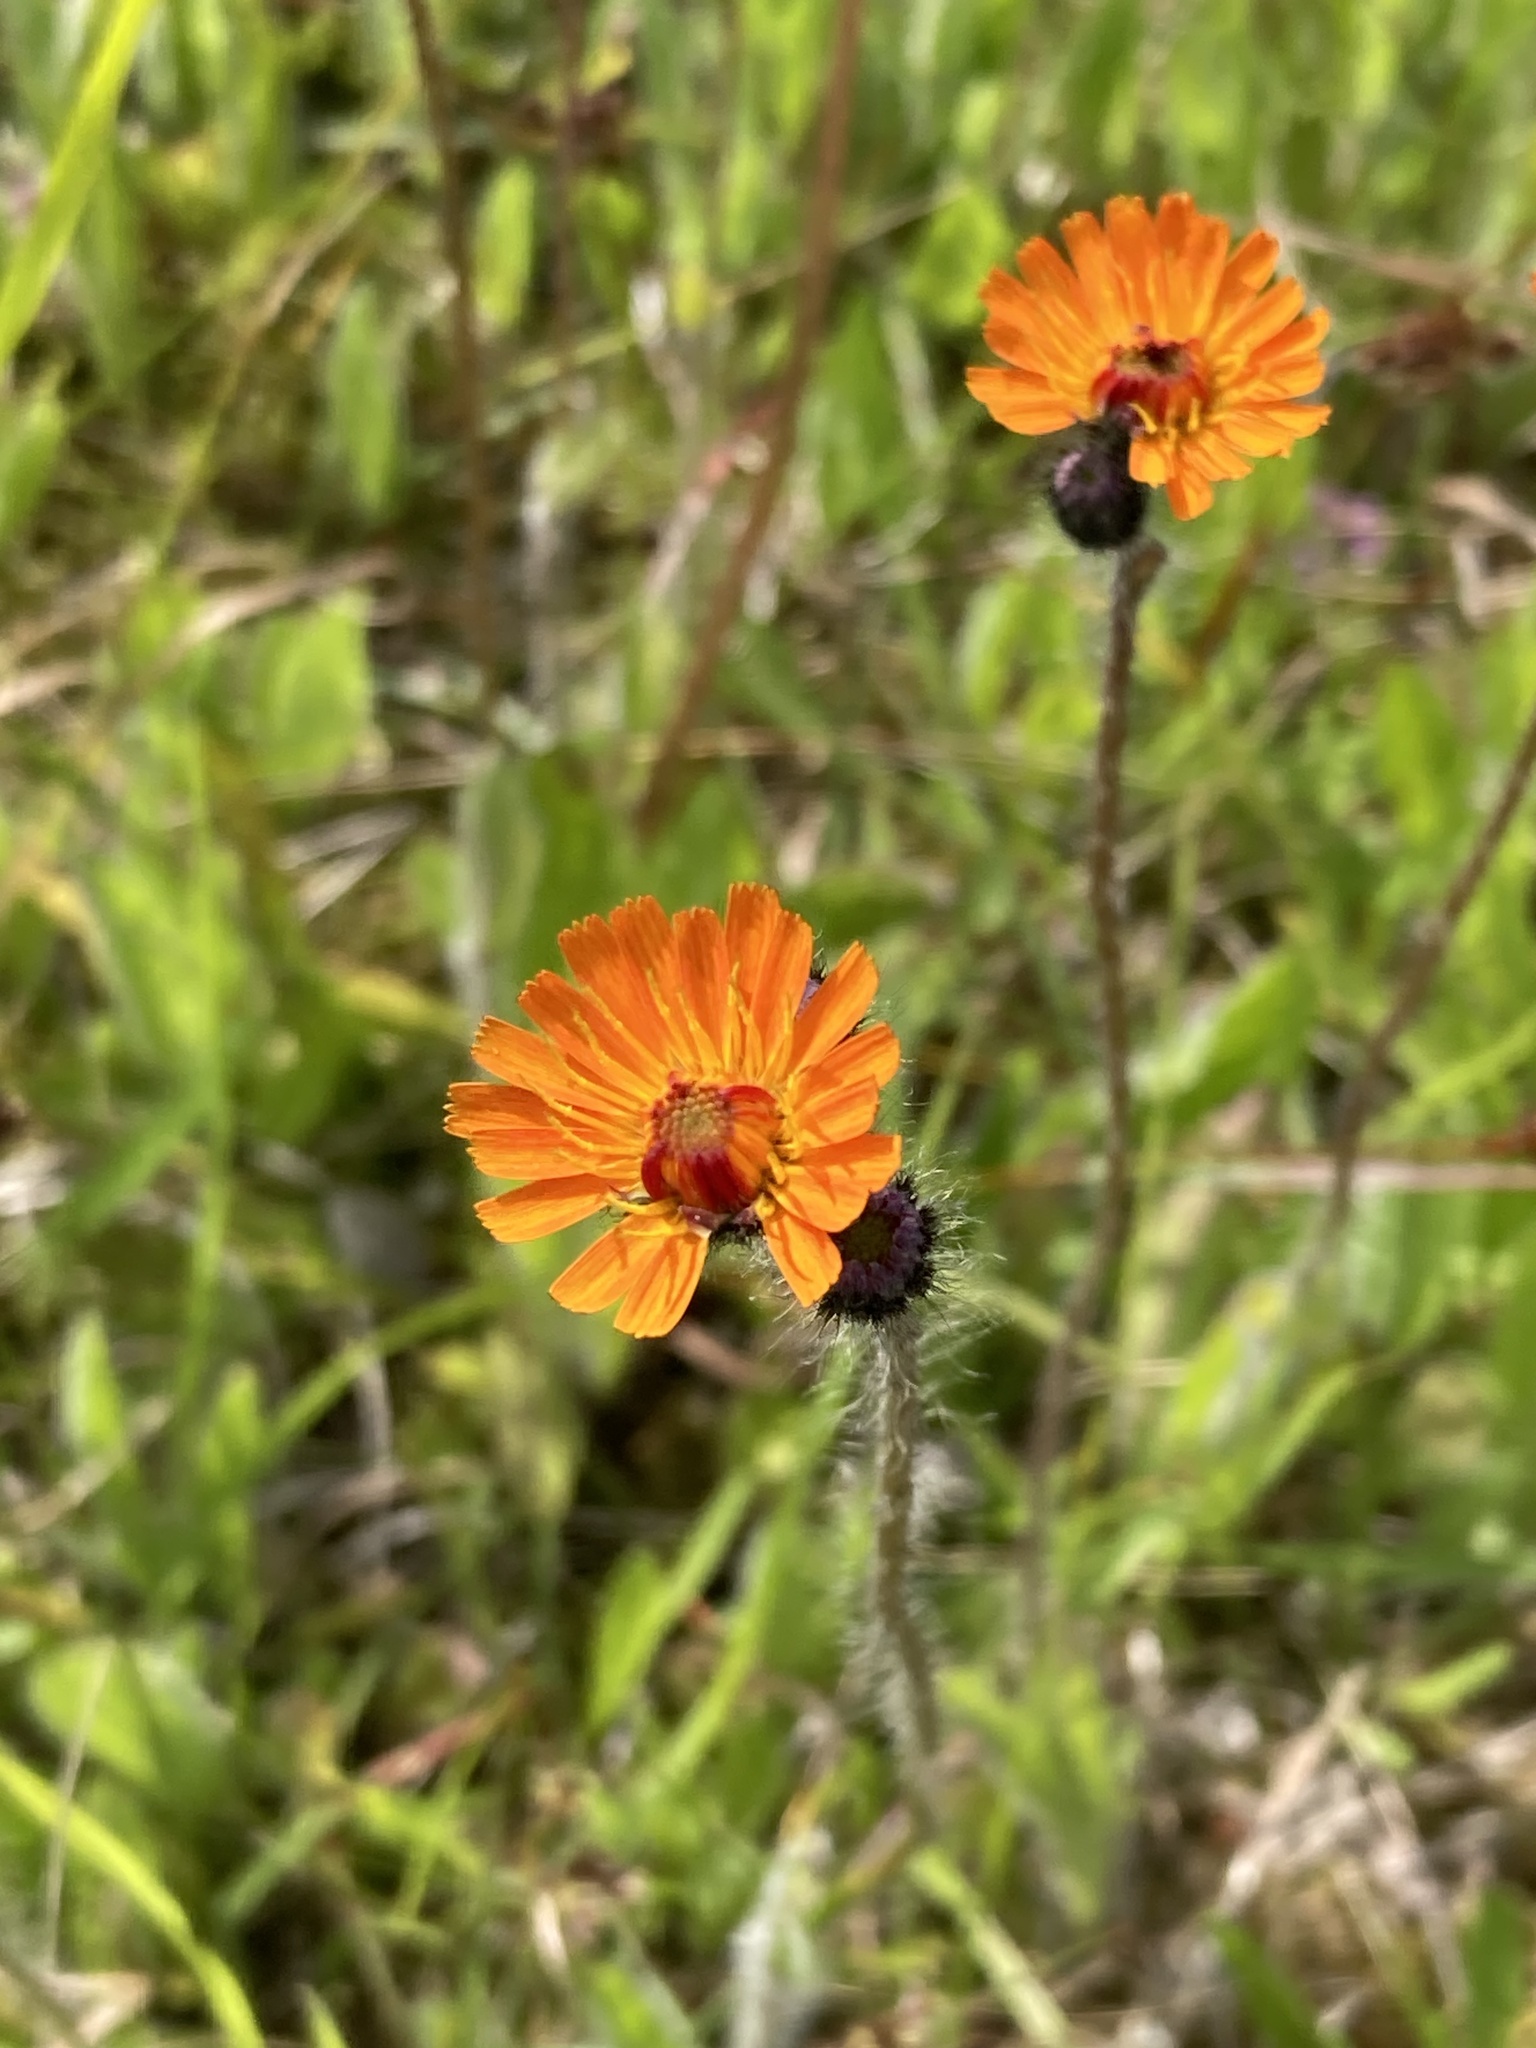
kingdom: Plantae
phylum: Tracheophyta
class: Magnoliopsida
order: Asterales
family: Asteraceae
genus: Pilosella
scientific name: Pilosella aurantiaca
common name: Fox-and-cubs
